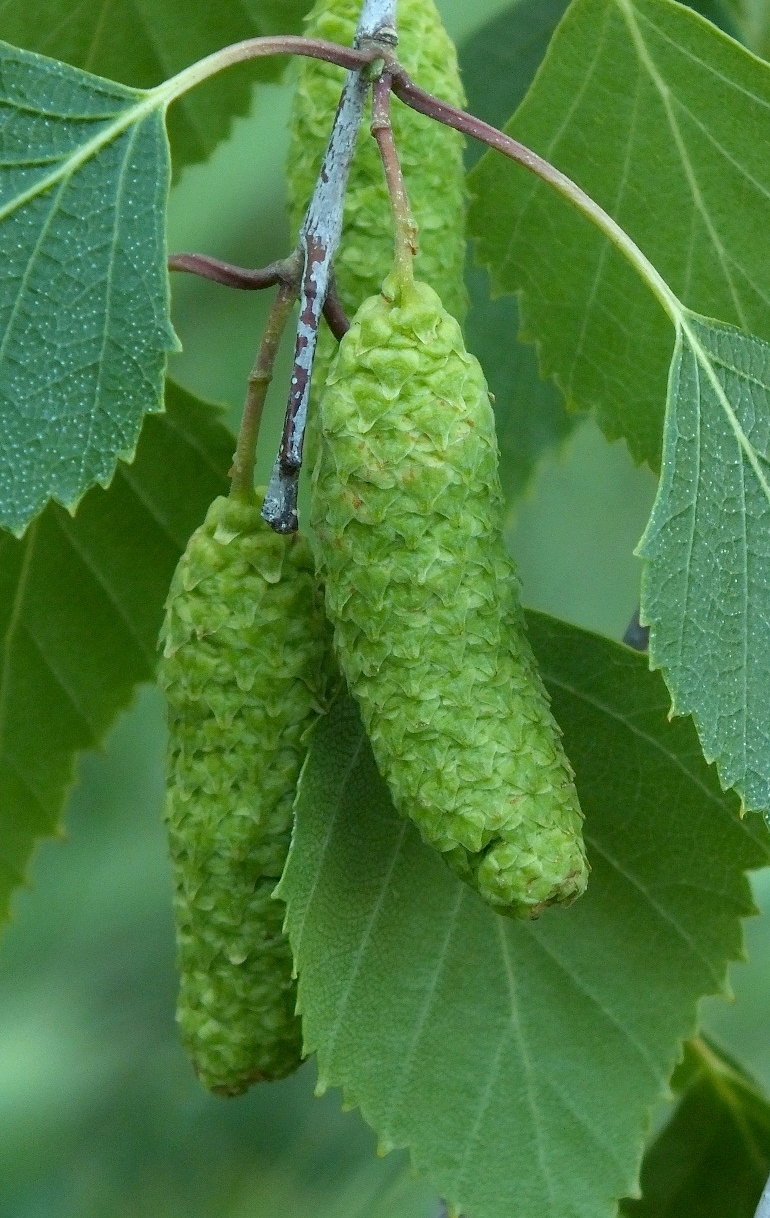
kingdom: Plantae
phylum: Tracheophyta
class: Magnoliopsida
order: Fagales
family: Betulaceae
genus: Betula
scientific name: Betula pendula
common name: Silver birch
